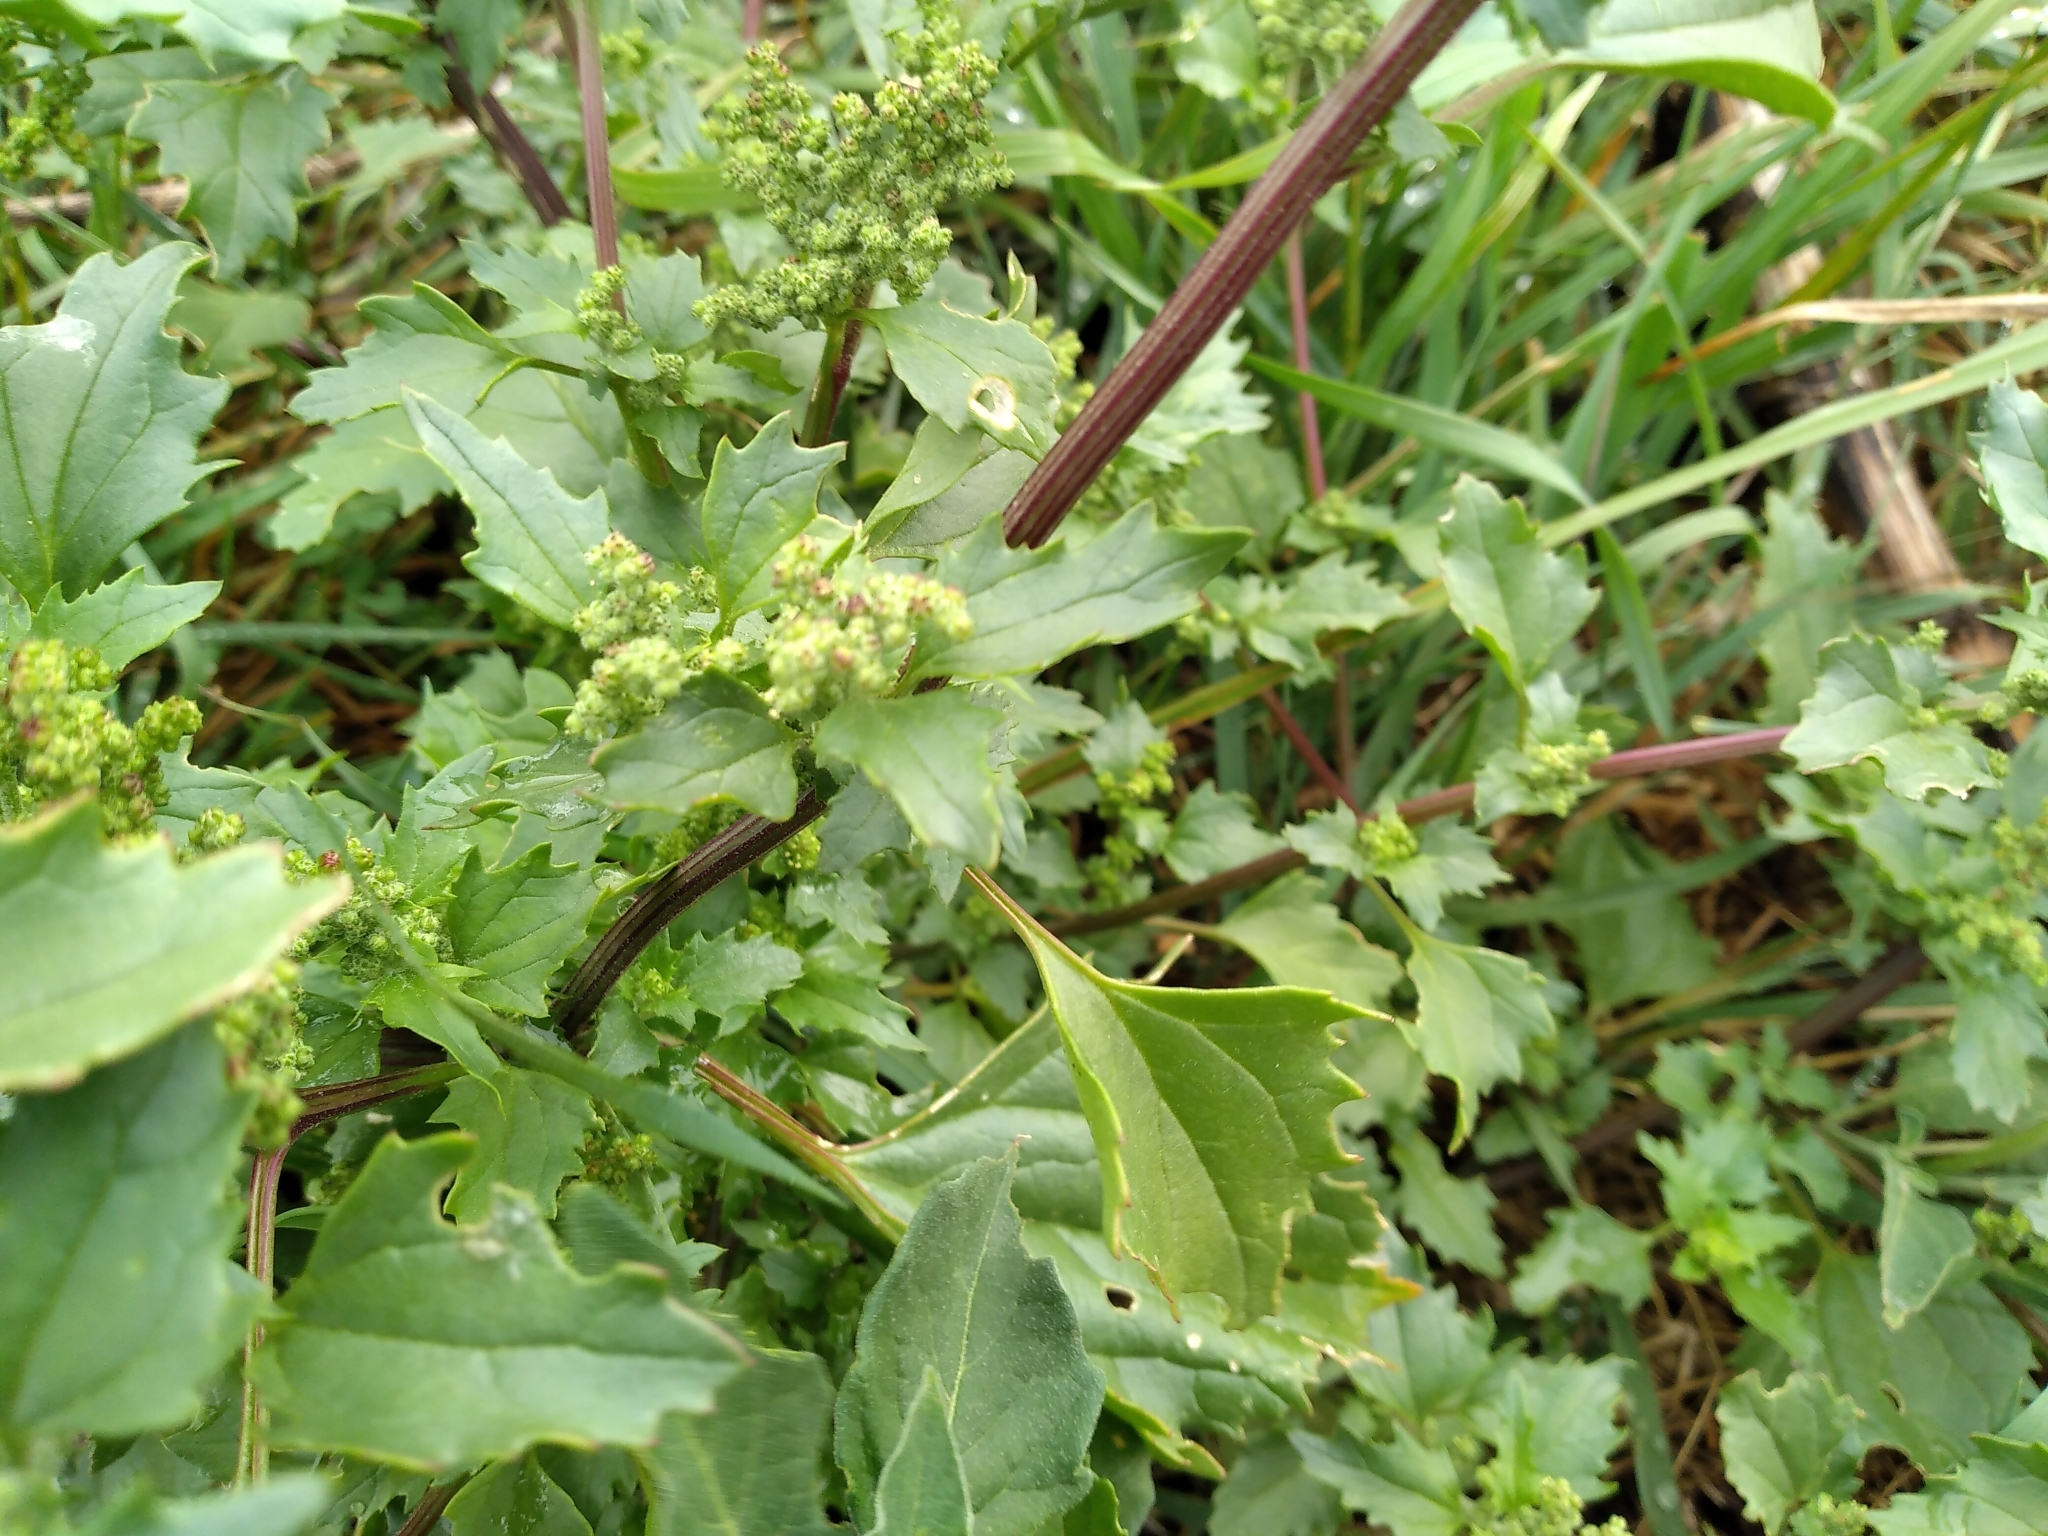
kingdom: Plantae
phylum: Tracheophyta
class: Magnoliopsida
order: Caryophyllales
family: Amaranthaceae
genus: Chenopodiastrum
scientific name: Chenopodiastrum murale
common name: Sowbane
